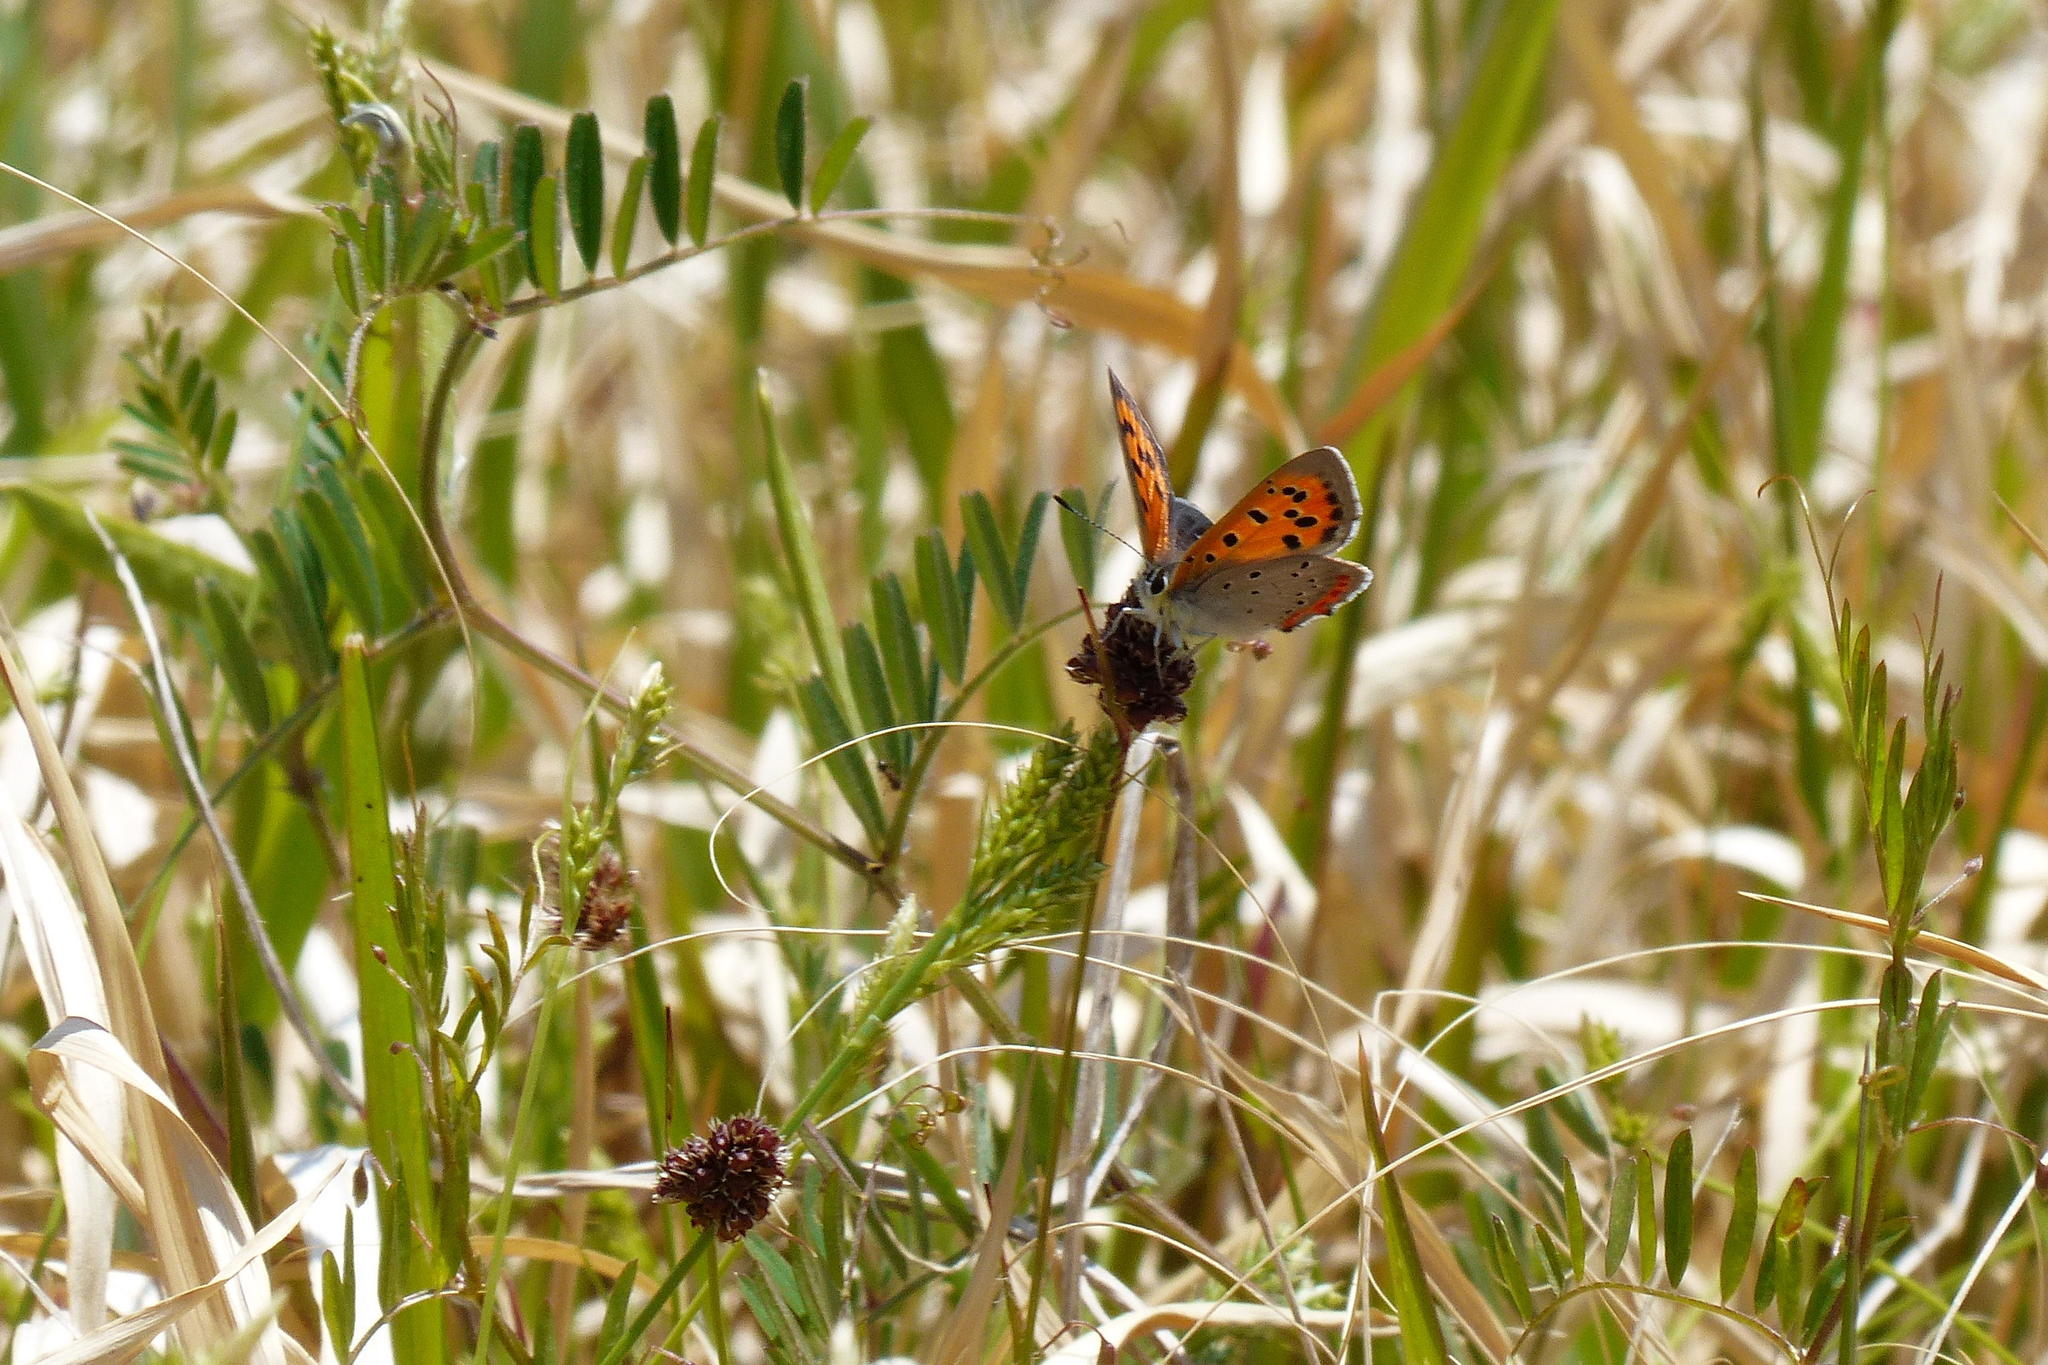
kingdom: Animalia
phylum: Arthropoda
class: Insecta
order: Lepidoptera
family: Lycaenidae
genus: Lycaena
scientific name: Lycaena phlaeas
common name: Small copper
